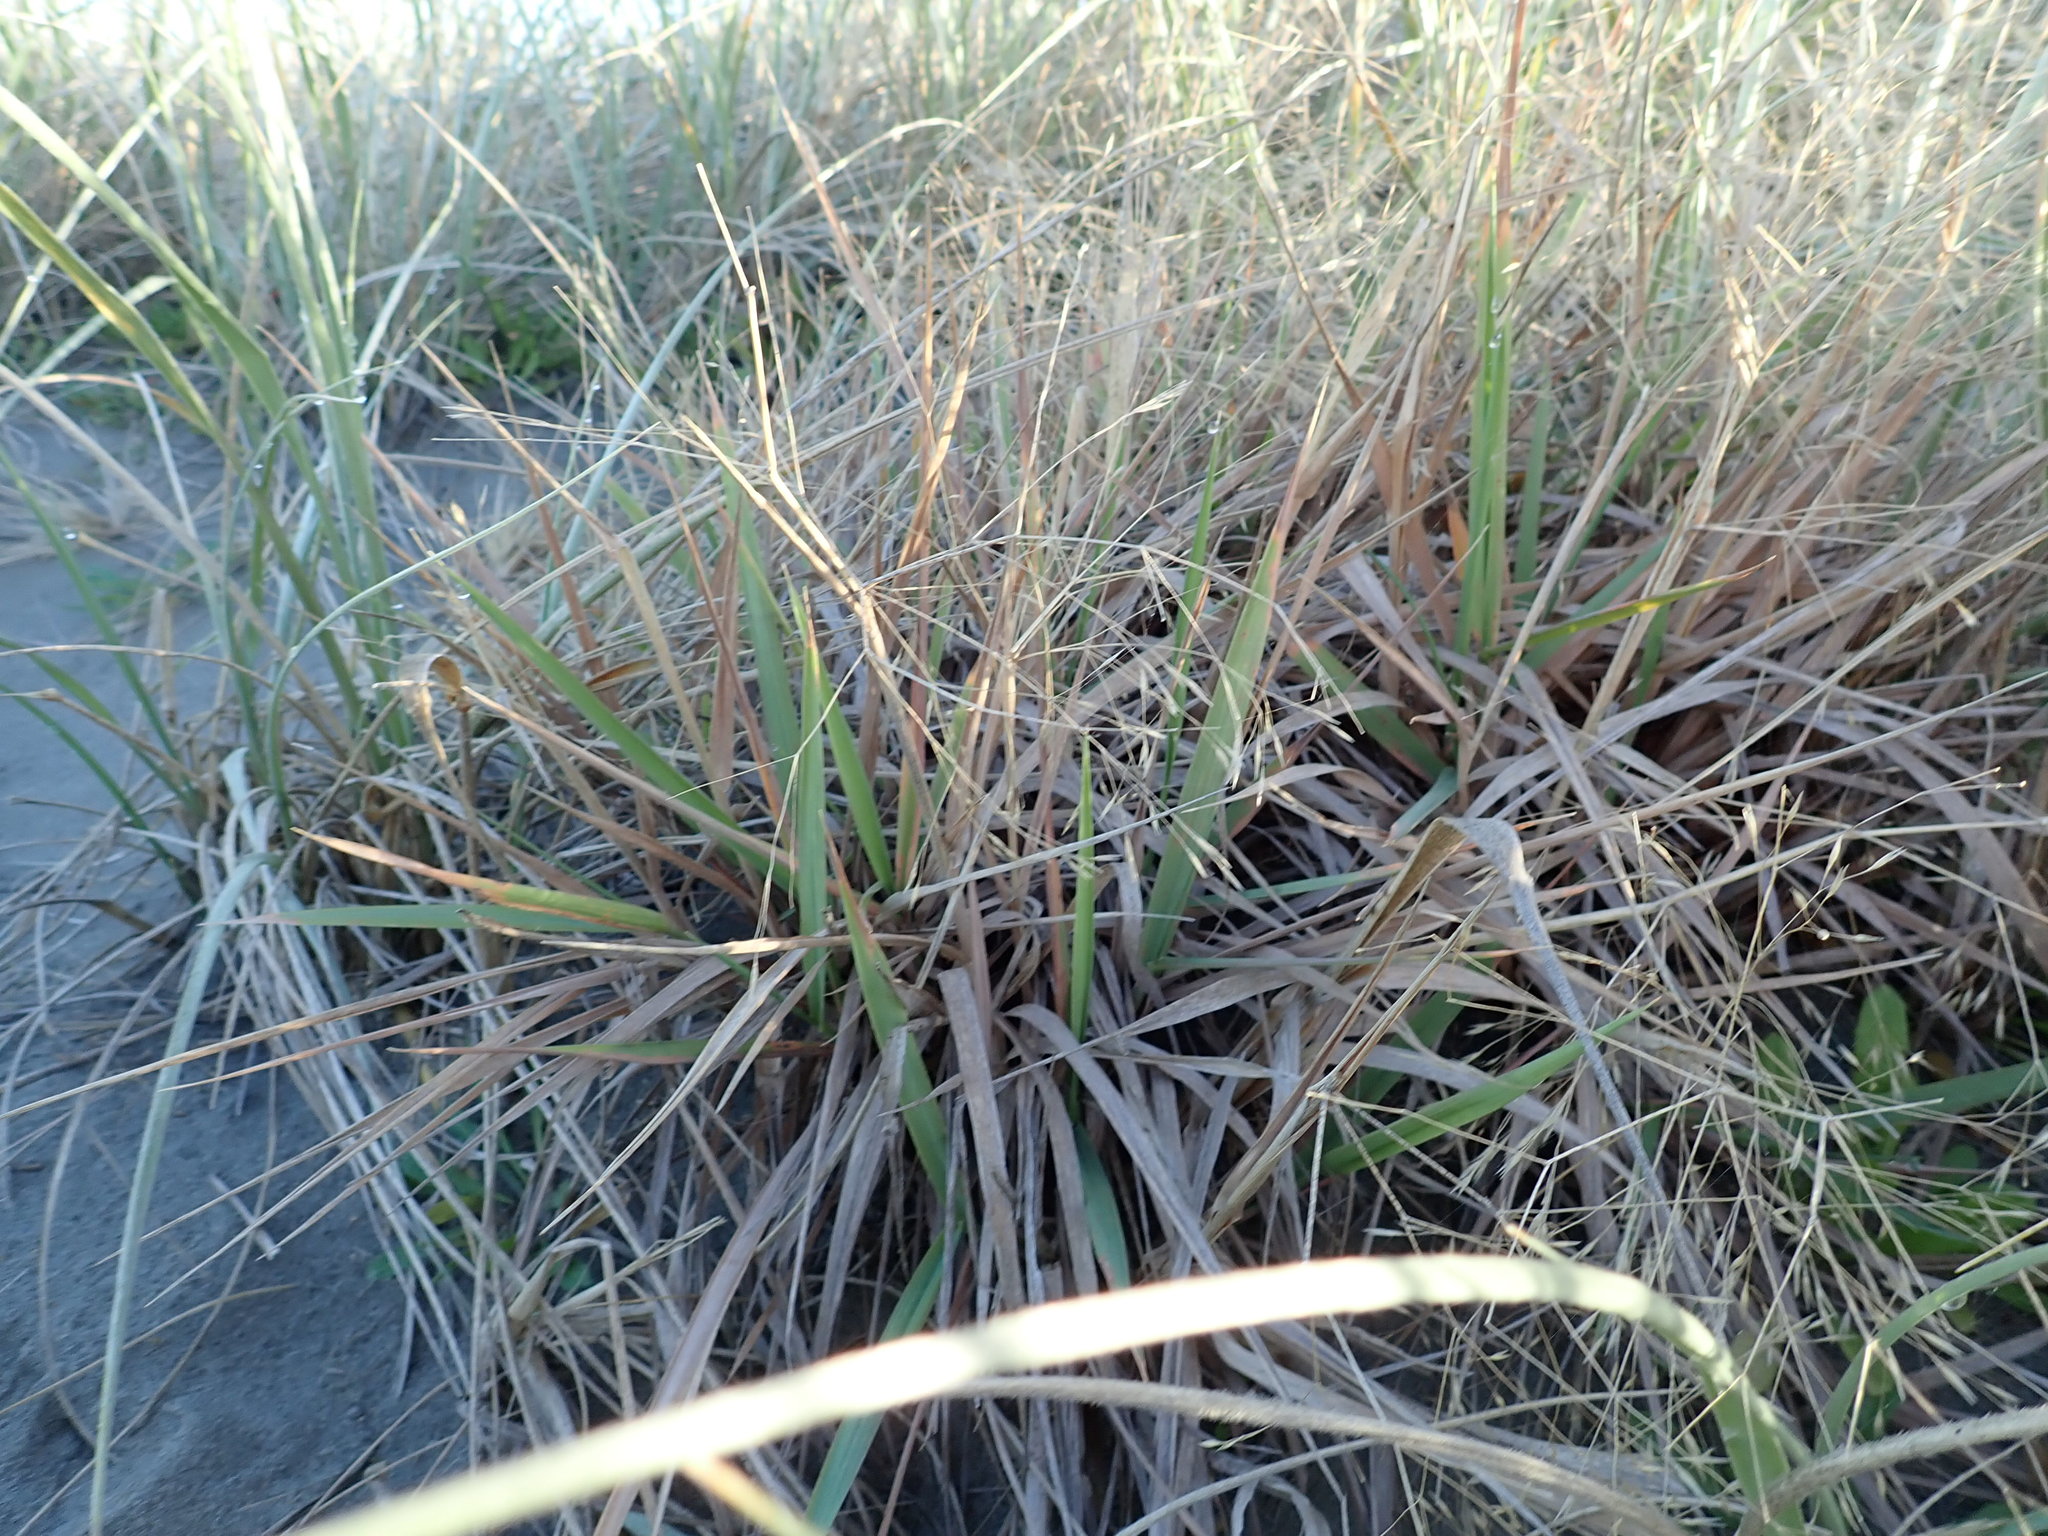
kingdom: Plantae
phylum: Tracheophyta
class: Liliopsida
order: Poales
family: Poaceae
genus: Lachnagrostis
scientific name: Lachnagrostis billardierei
